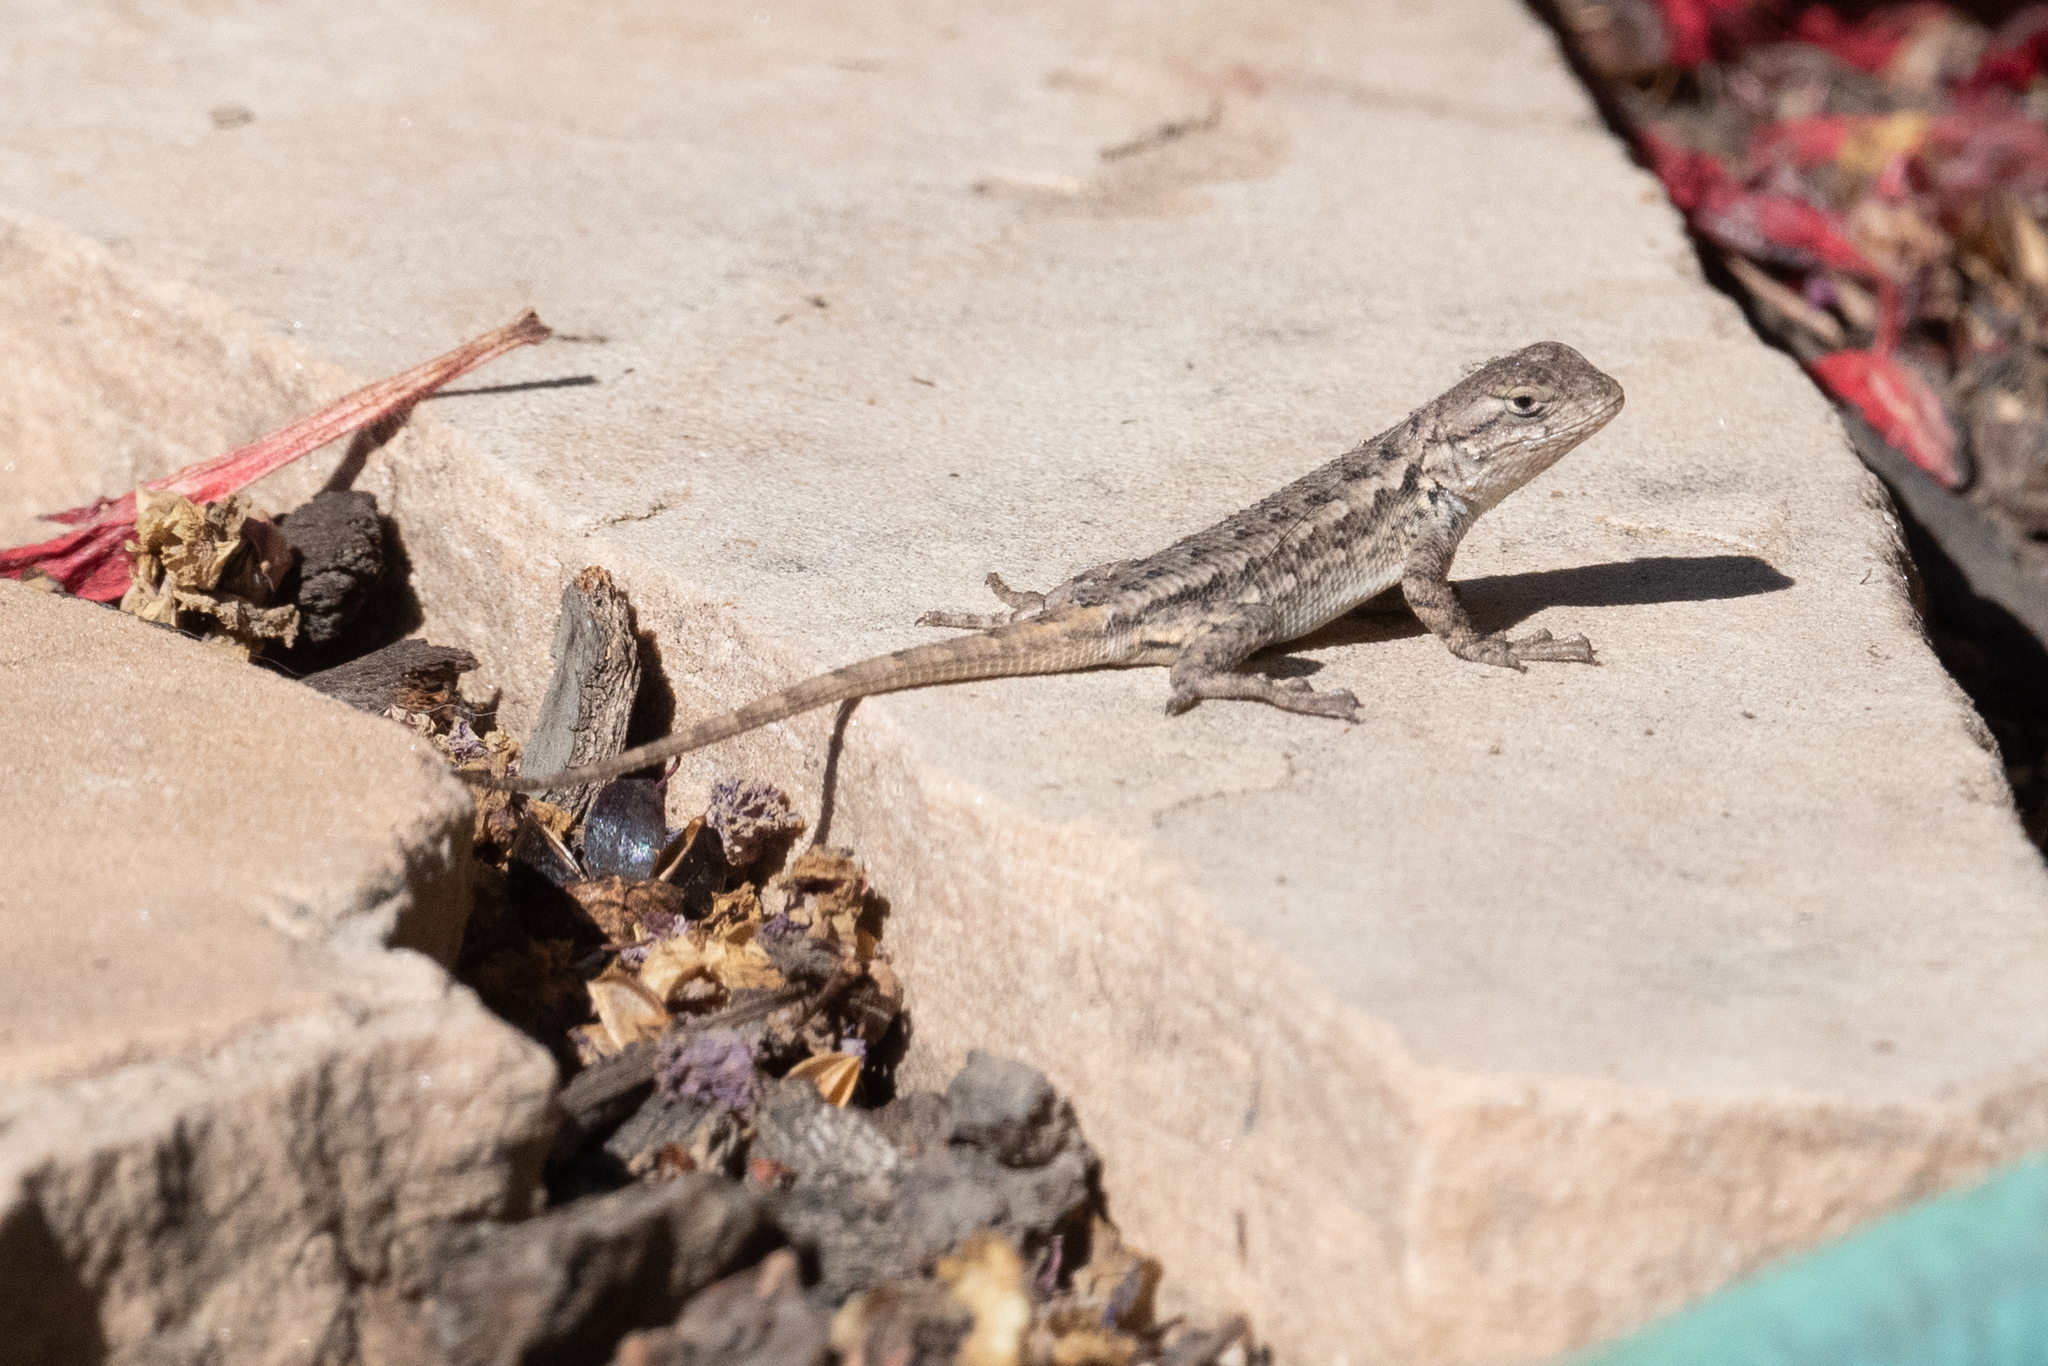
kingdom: Animalia
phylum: Chordata
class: Squamata
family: Phrynosomatidae
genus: Sceloporus
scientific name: Sceloporus occidentalis
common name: Western fence lizard
